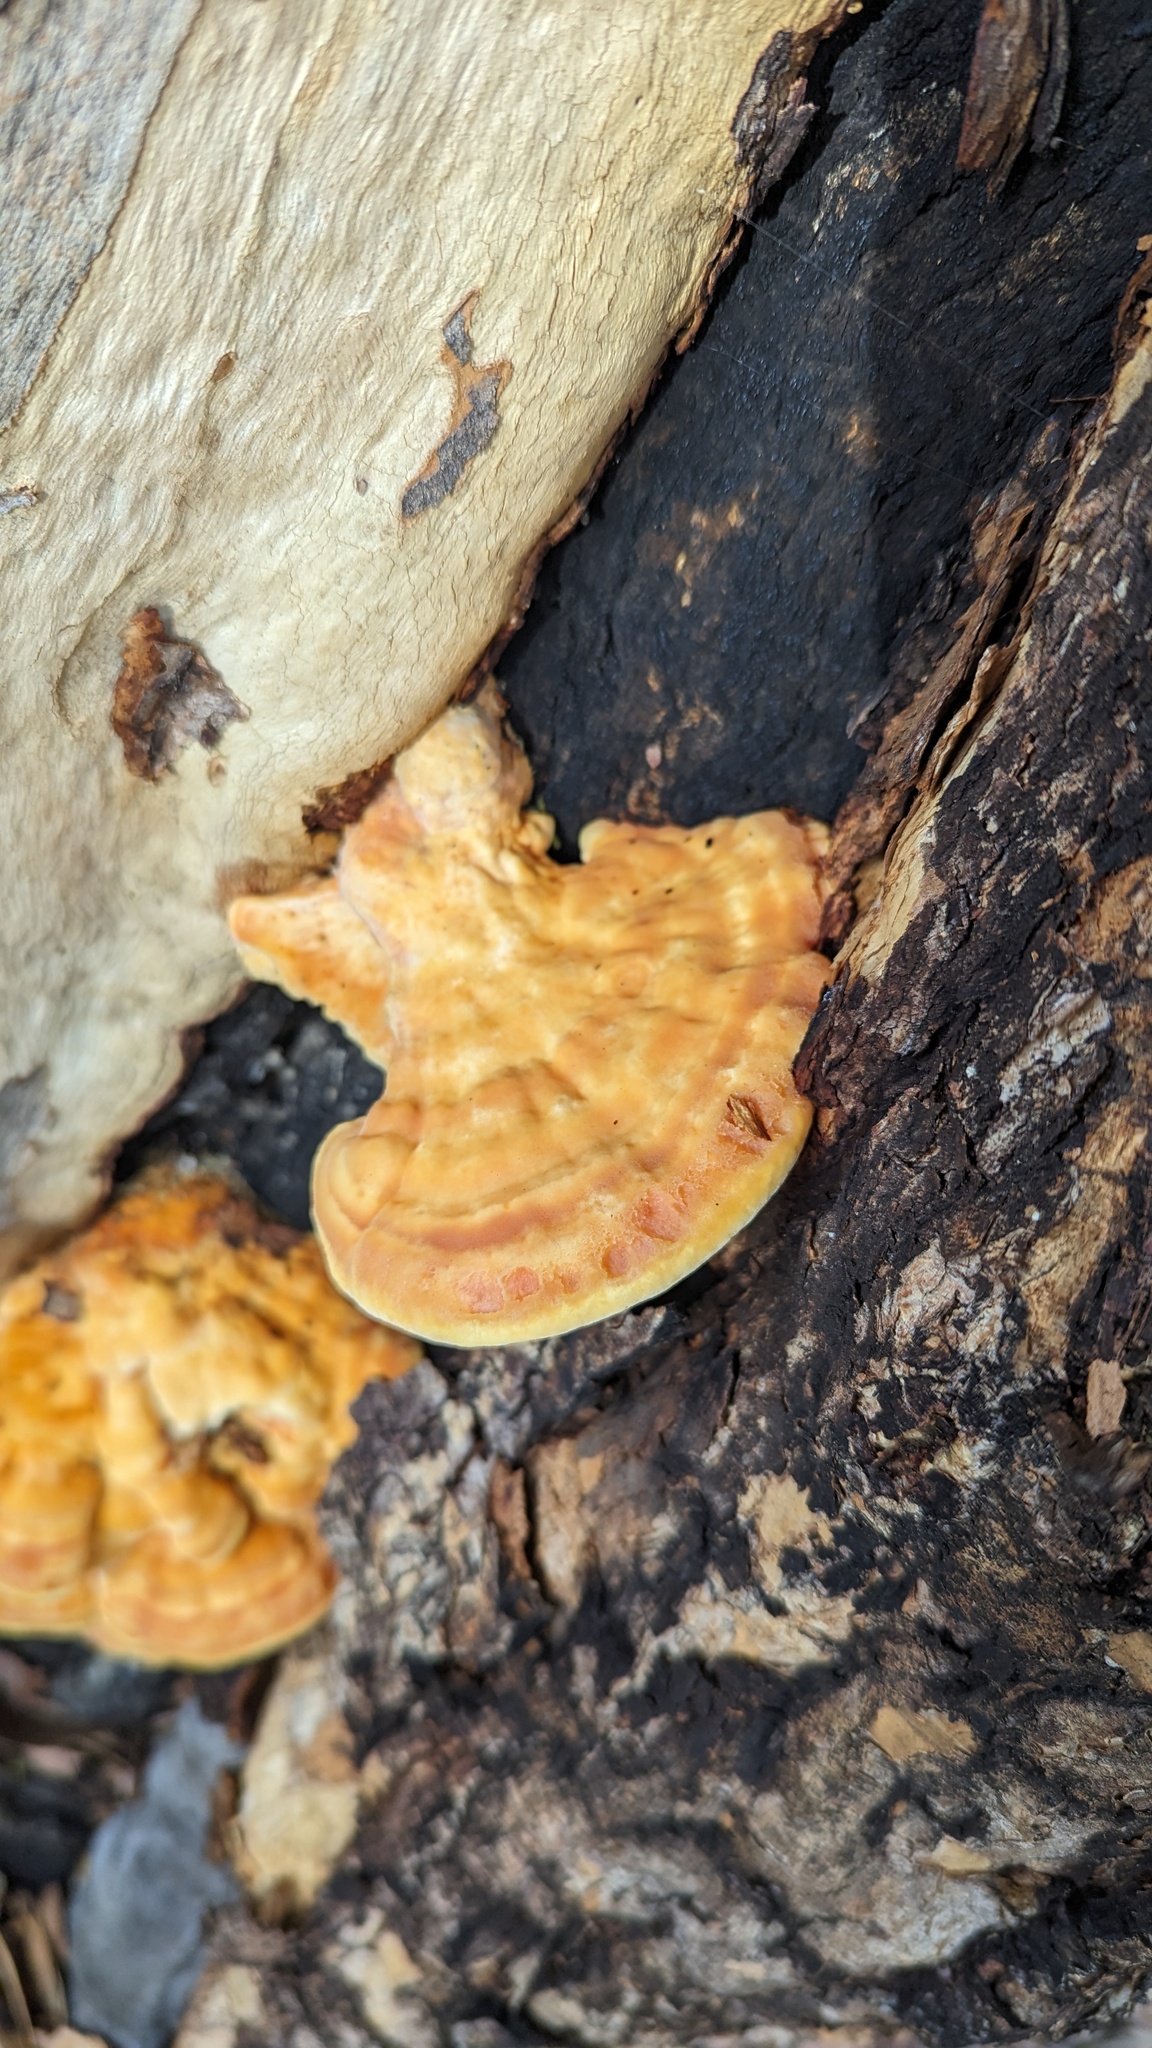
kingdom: Fungi
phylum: Basidiomycota
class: Agaricomycetes
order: Polyporales
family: Laetiporaceae
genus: Laetiporus
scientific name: Laetiporus gilbertsonii
